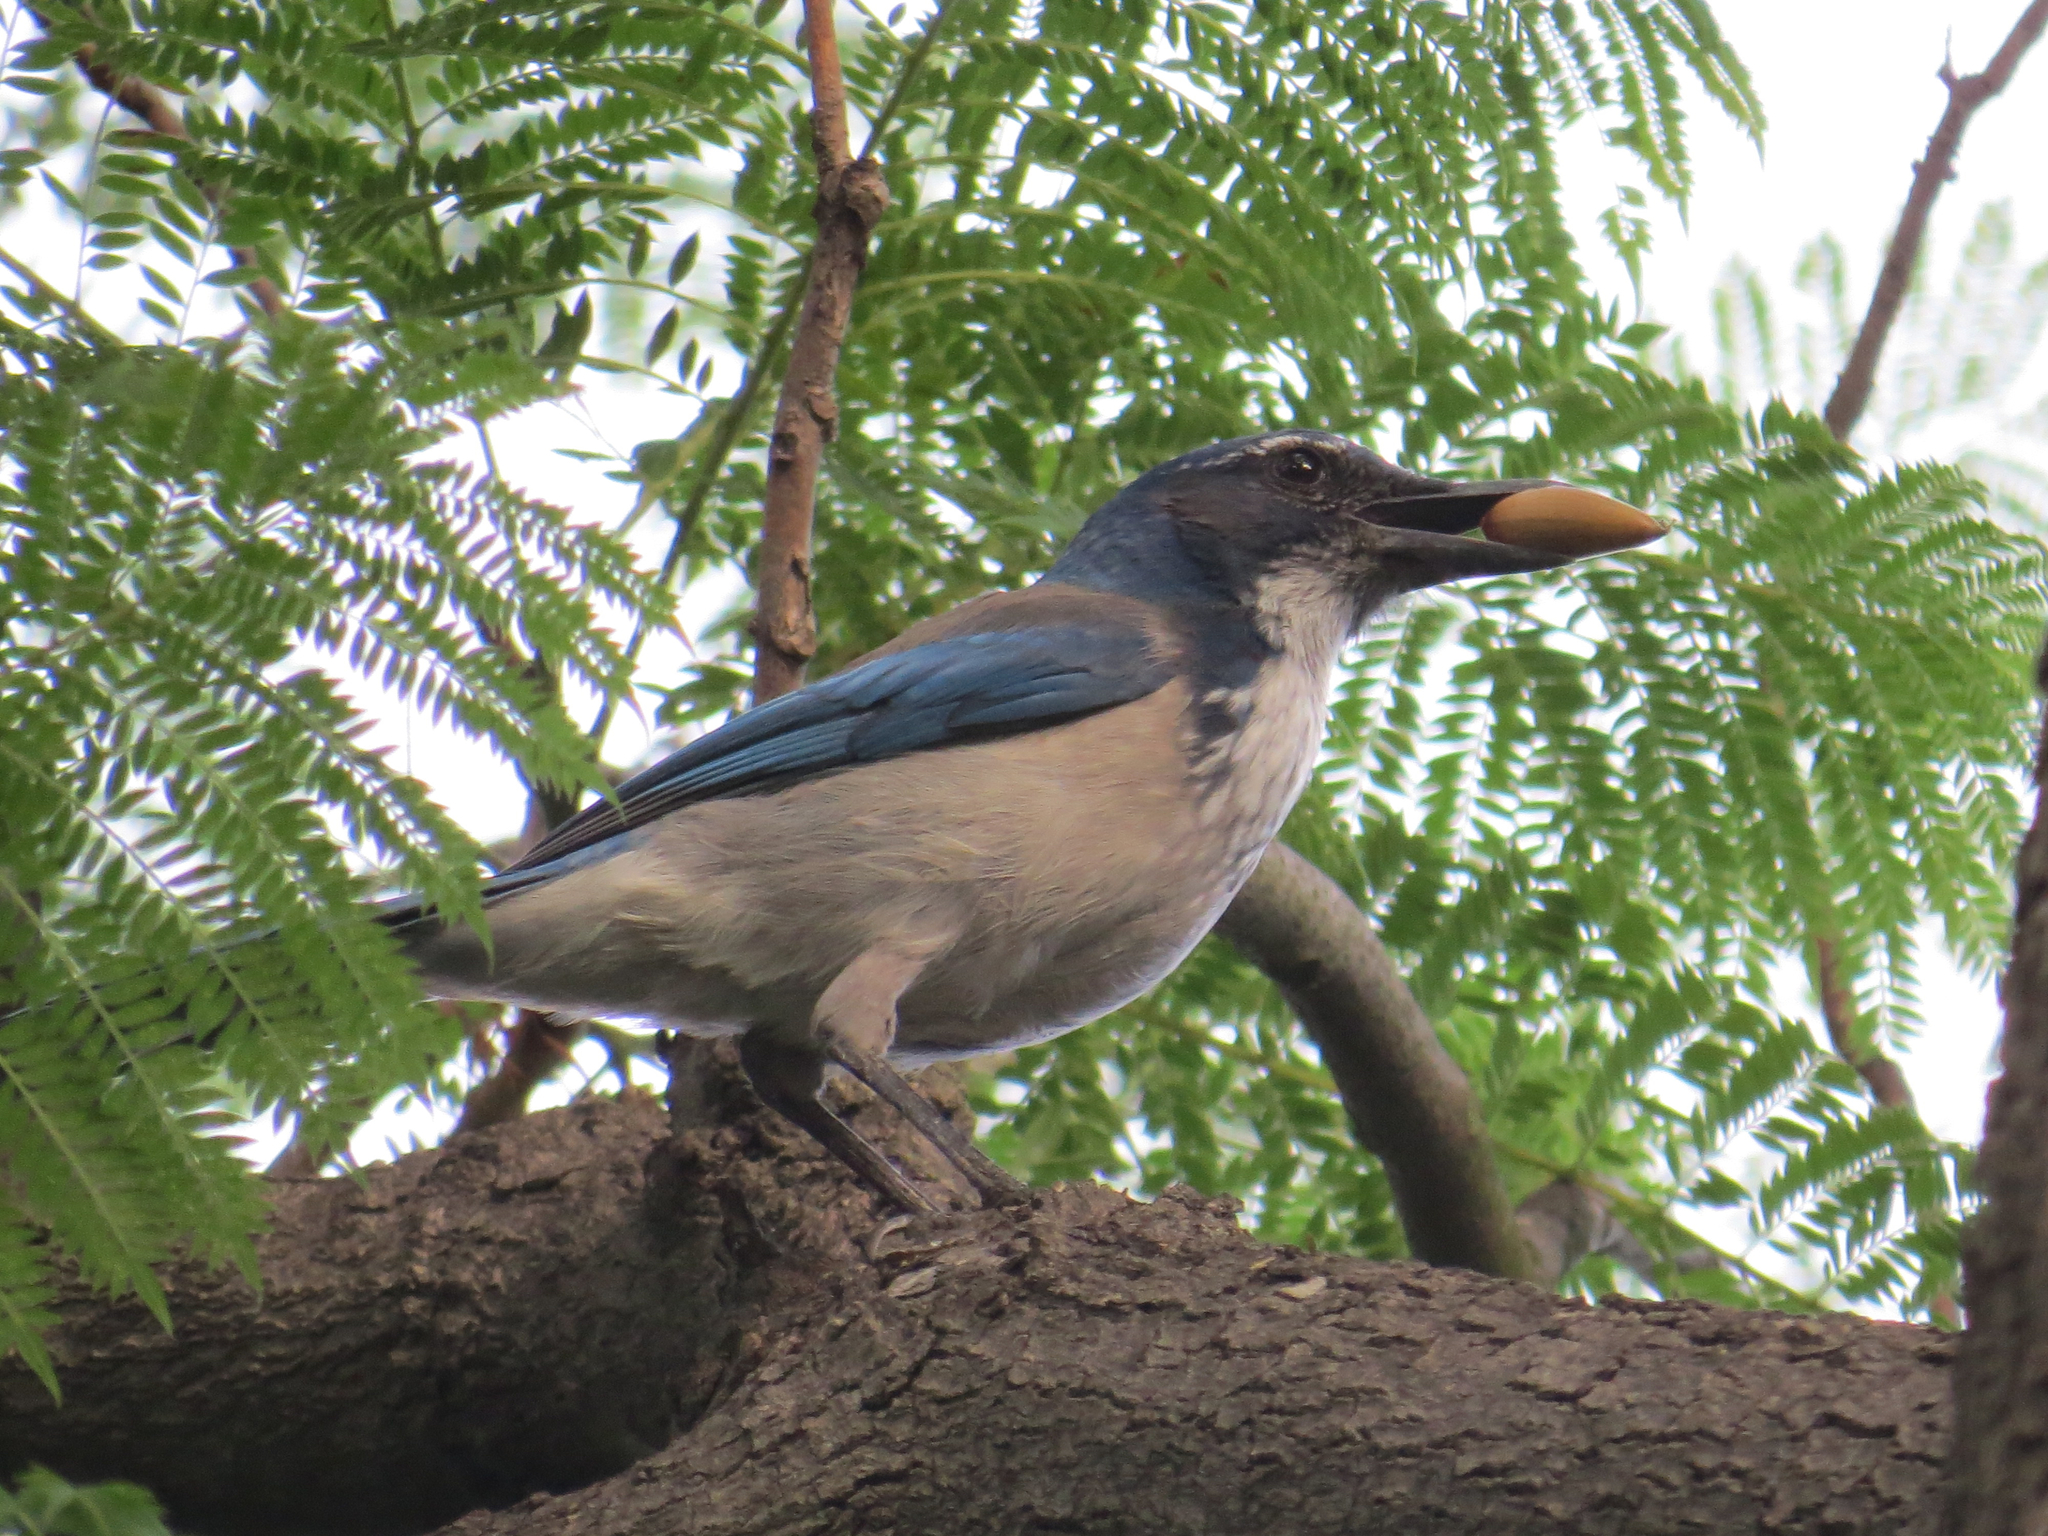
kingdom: Animalia
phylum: Chordata
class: Aves
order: Passeriformes
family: Corvidae
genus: Aphelocoma
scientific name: Aphelocoma californica
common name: California scrub-jay
